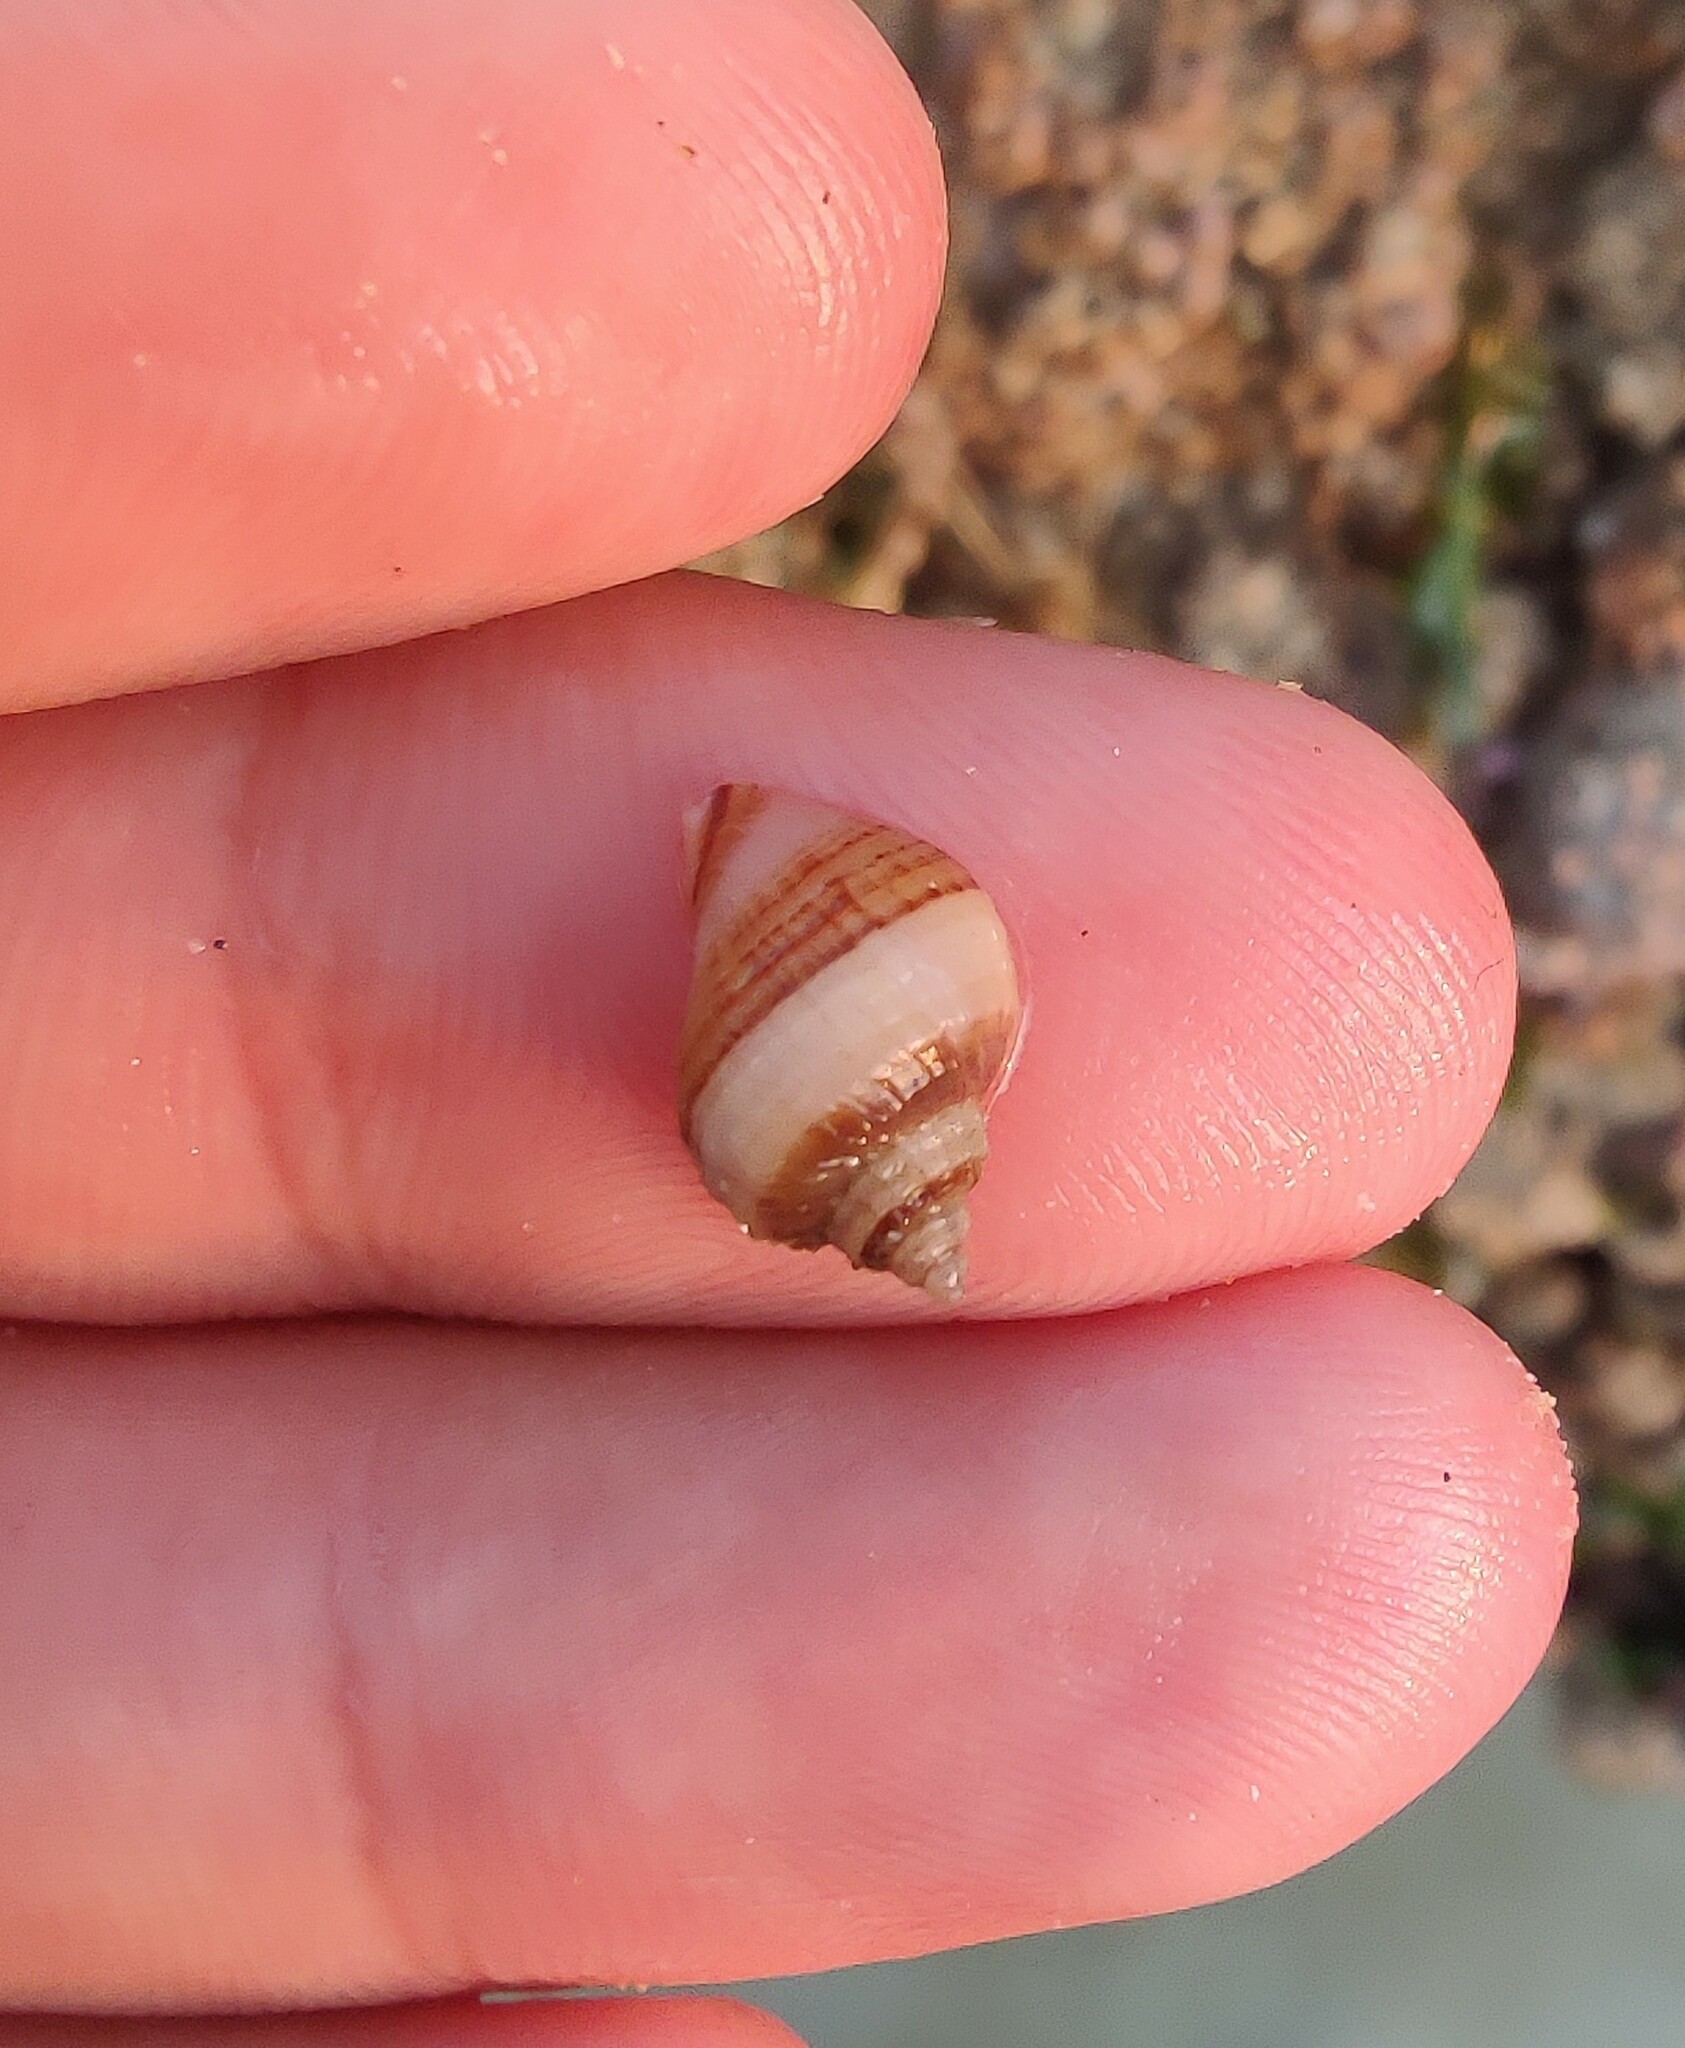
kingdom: Animalia
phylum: Mollusca
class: Gastropoda
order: Neogastropoda
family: Muricidae
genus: Nucella
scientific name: Nucella lapillus
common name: Dog whelk
